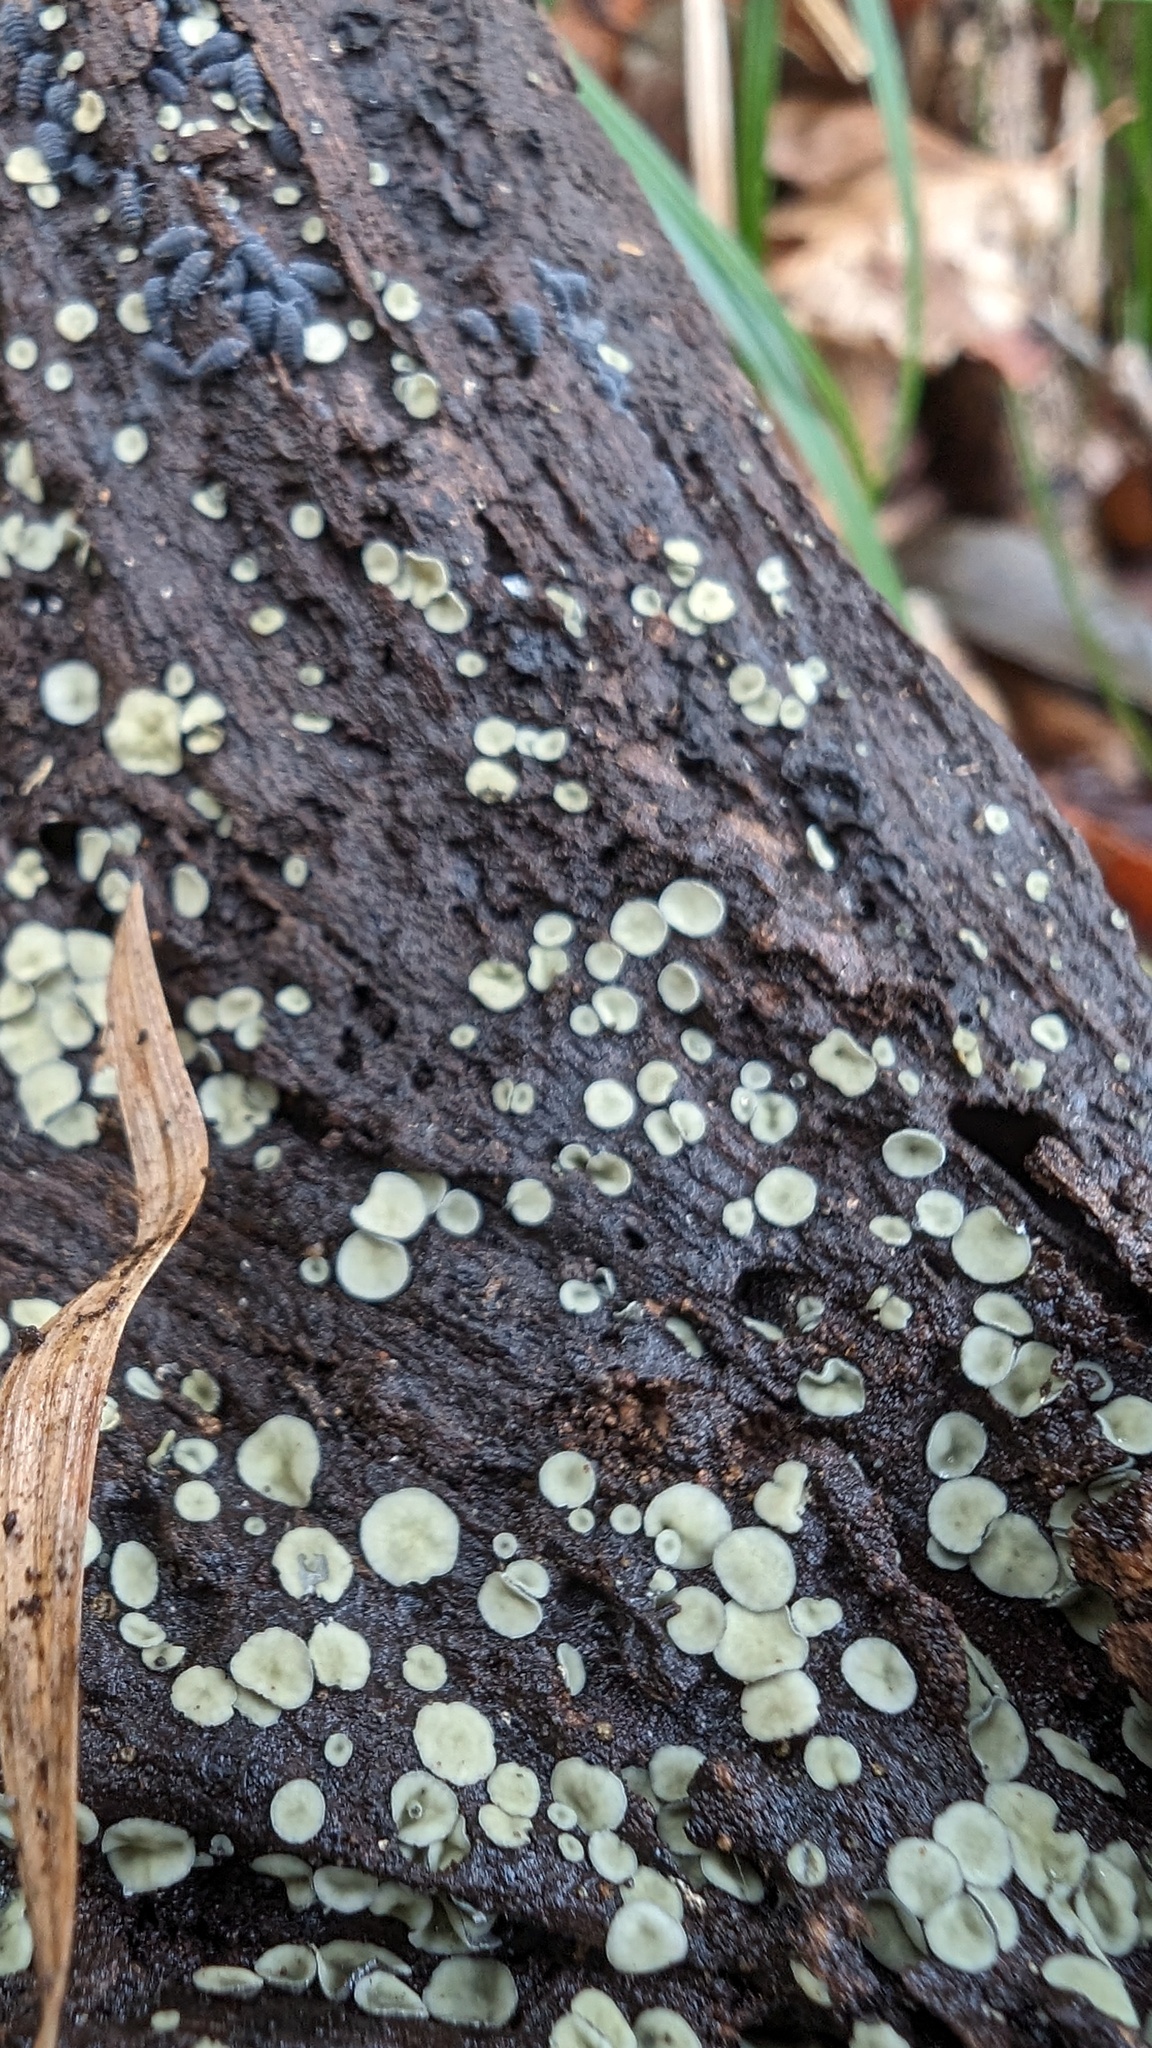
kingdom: Fungi
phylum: Ascomycota
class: Leotiomycetes
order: Helotiales
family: Chlorospleniaceae
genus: Chlorosplenium
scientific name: Chlorosplenium chlora
